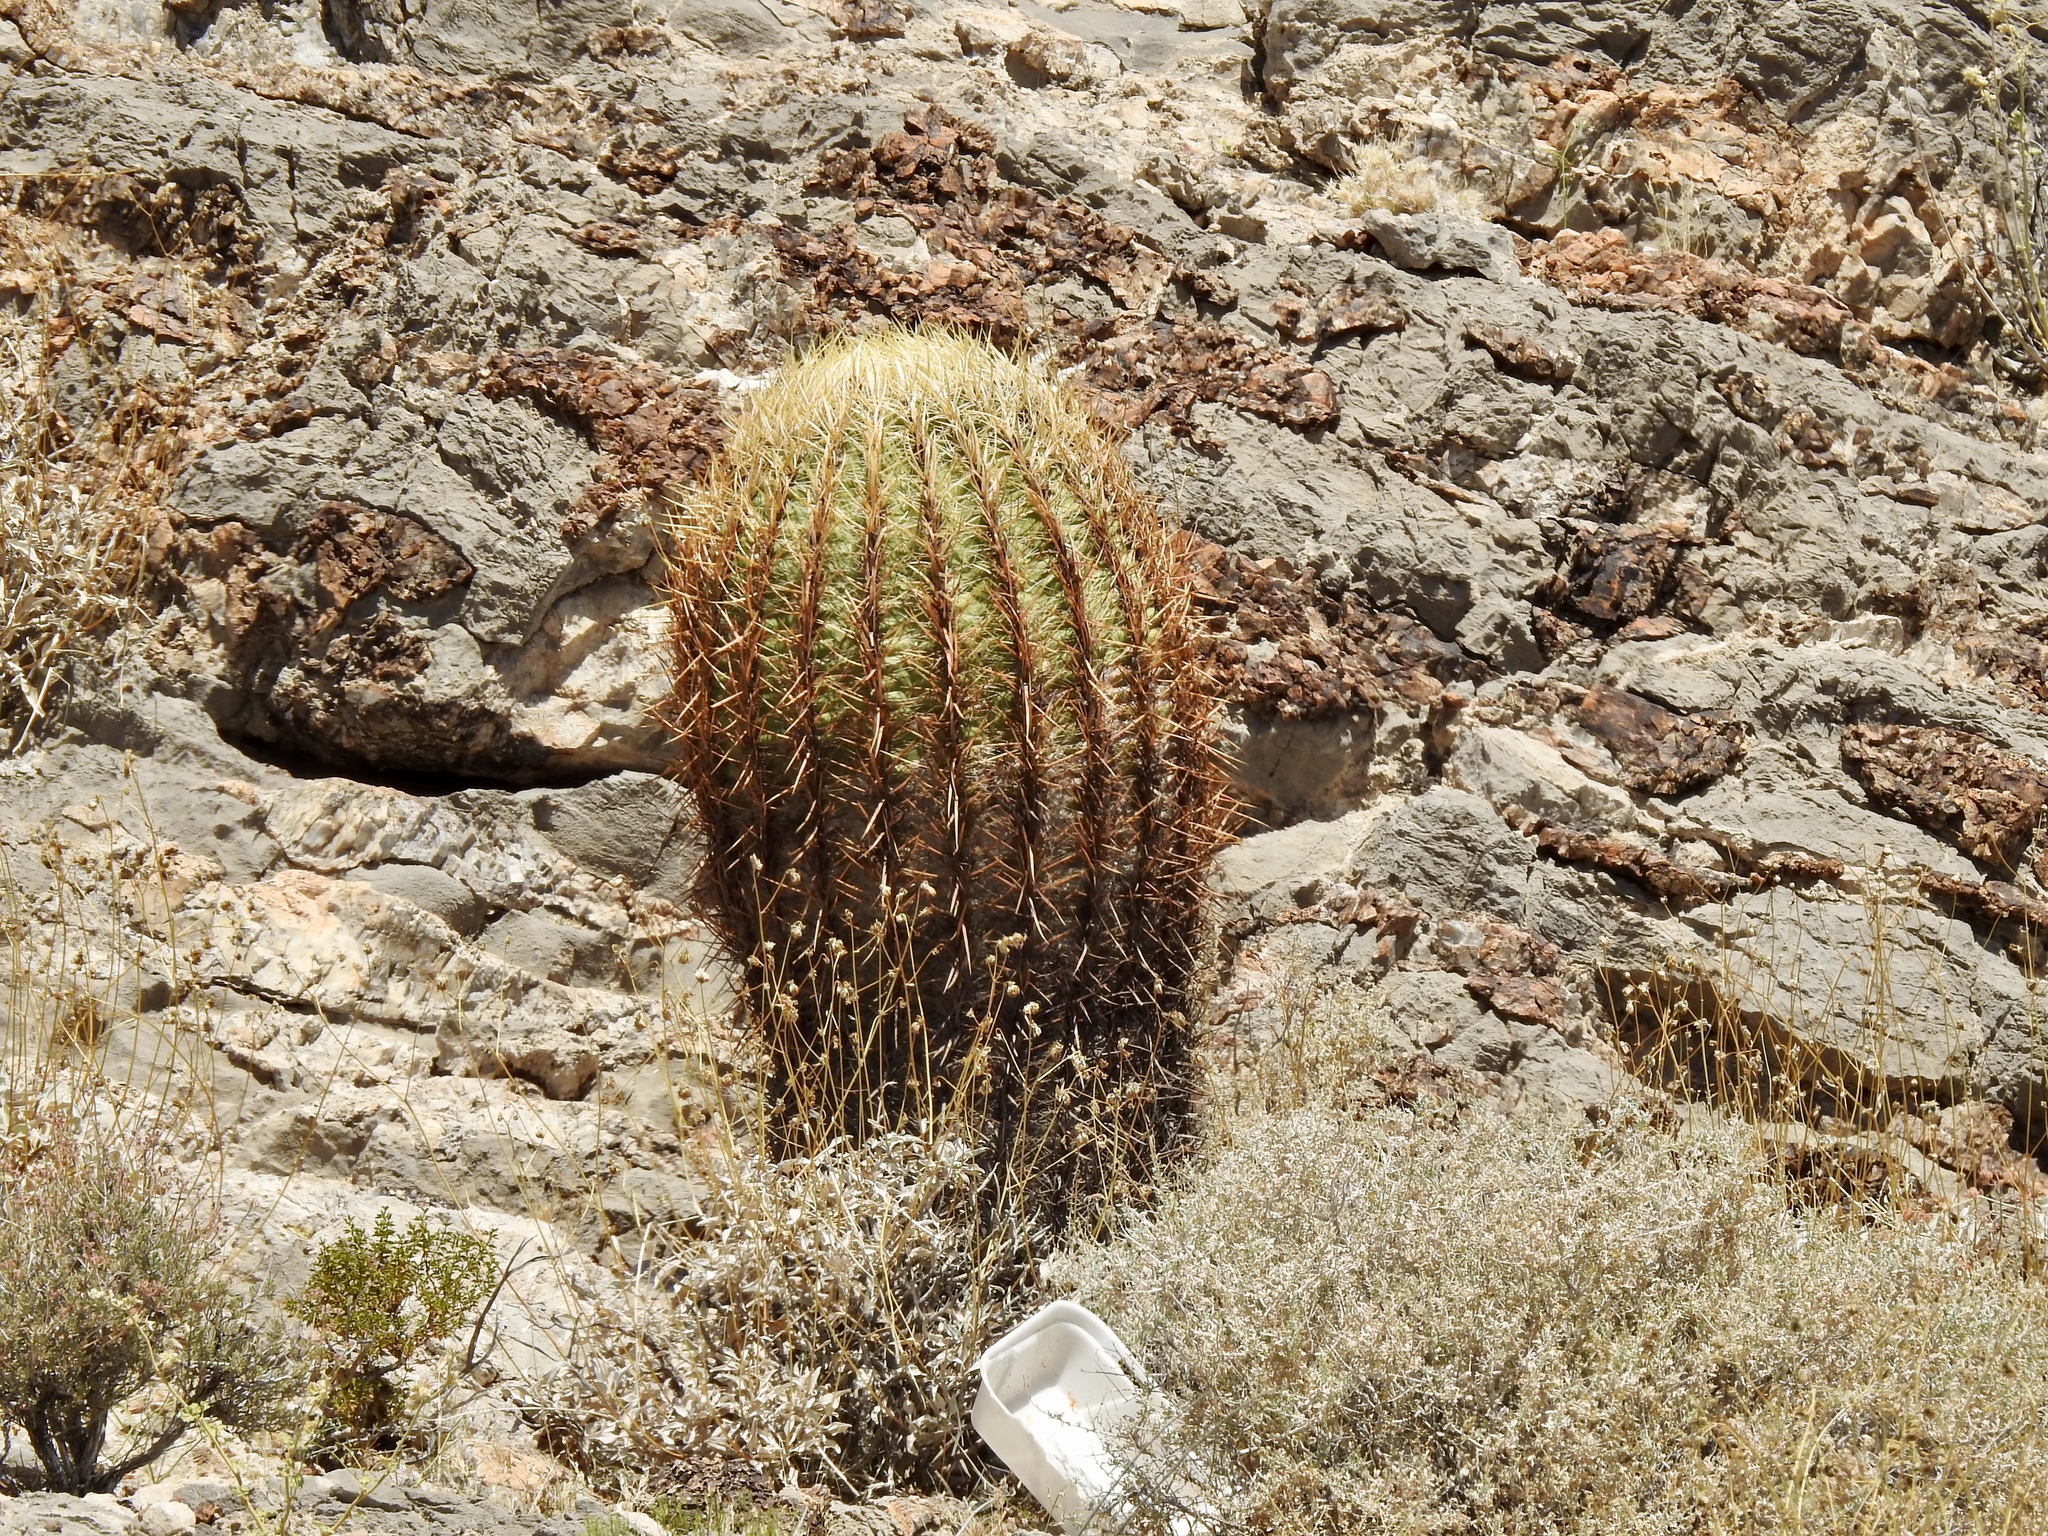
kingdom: Plantae
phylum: Tracheophyta
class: Magnoliopsida
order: Caryophyllales
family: Cactaceae
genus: Ferocactus
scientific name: Ferocactus cylindraceus
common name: California barrel cactus
